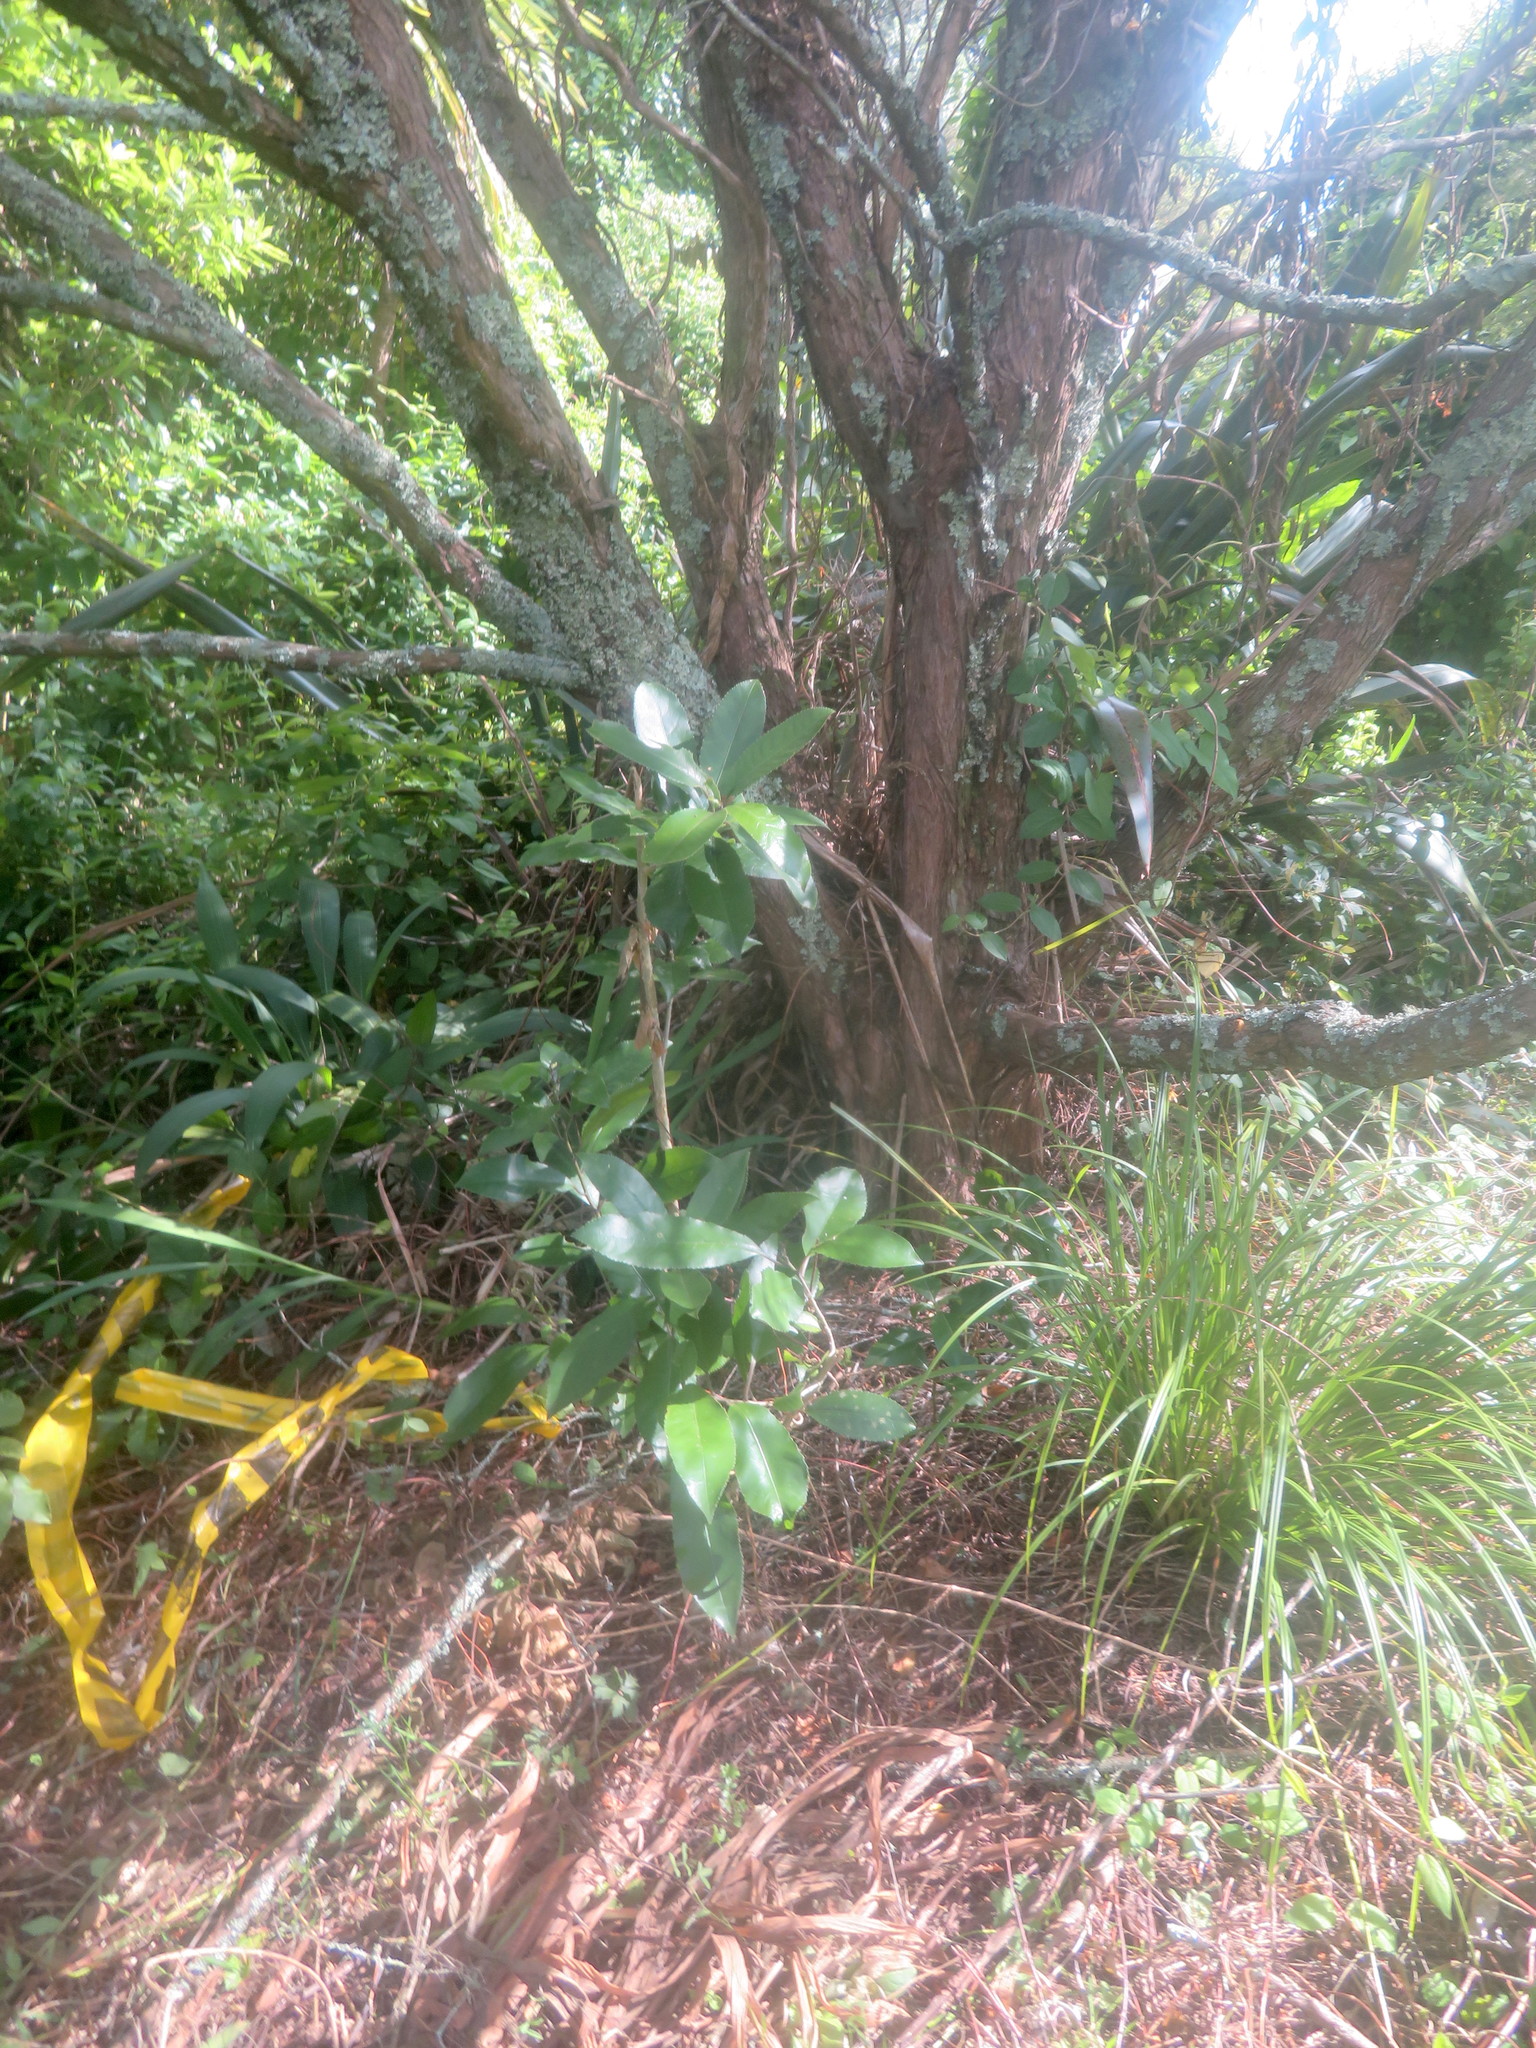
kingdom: Plantae
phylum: Tracheophyta
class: Magnoliopsida
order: Malpighiales
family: Violaceae
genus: Melicytus
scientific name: Melicytus ramiflorus
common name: Mahoe
